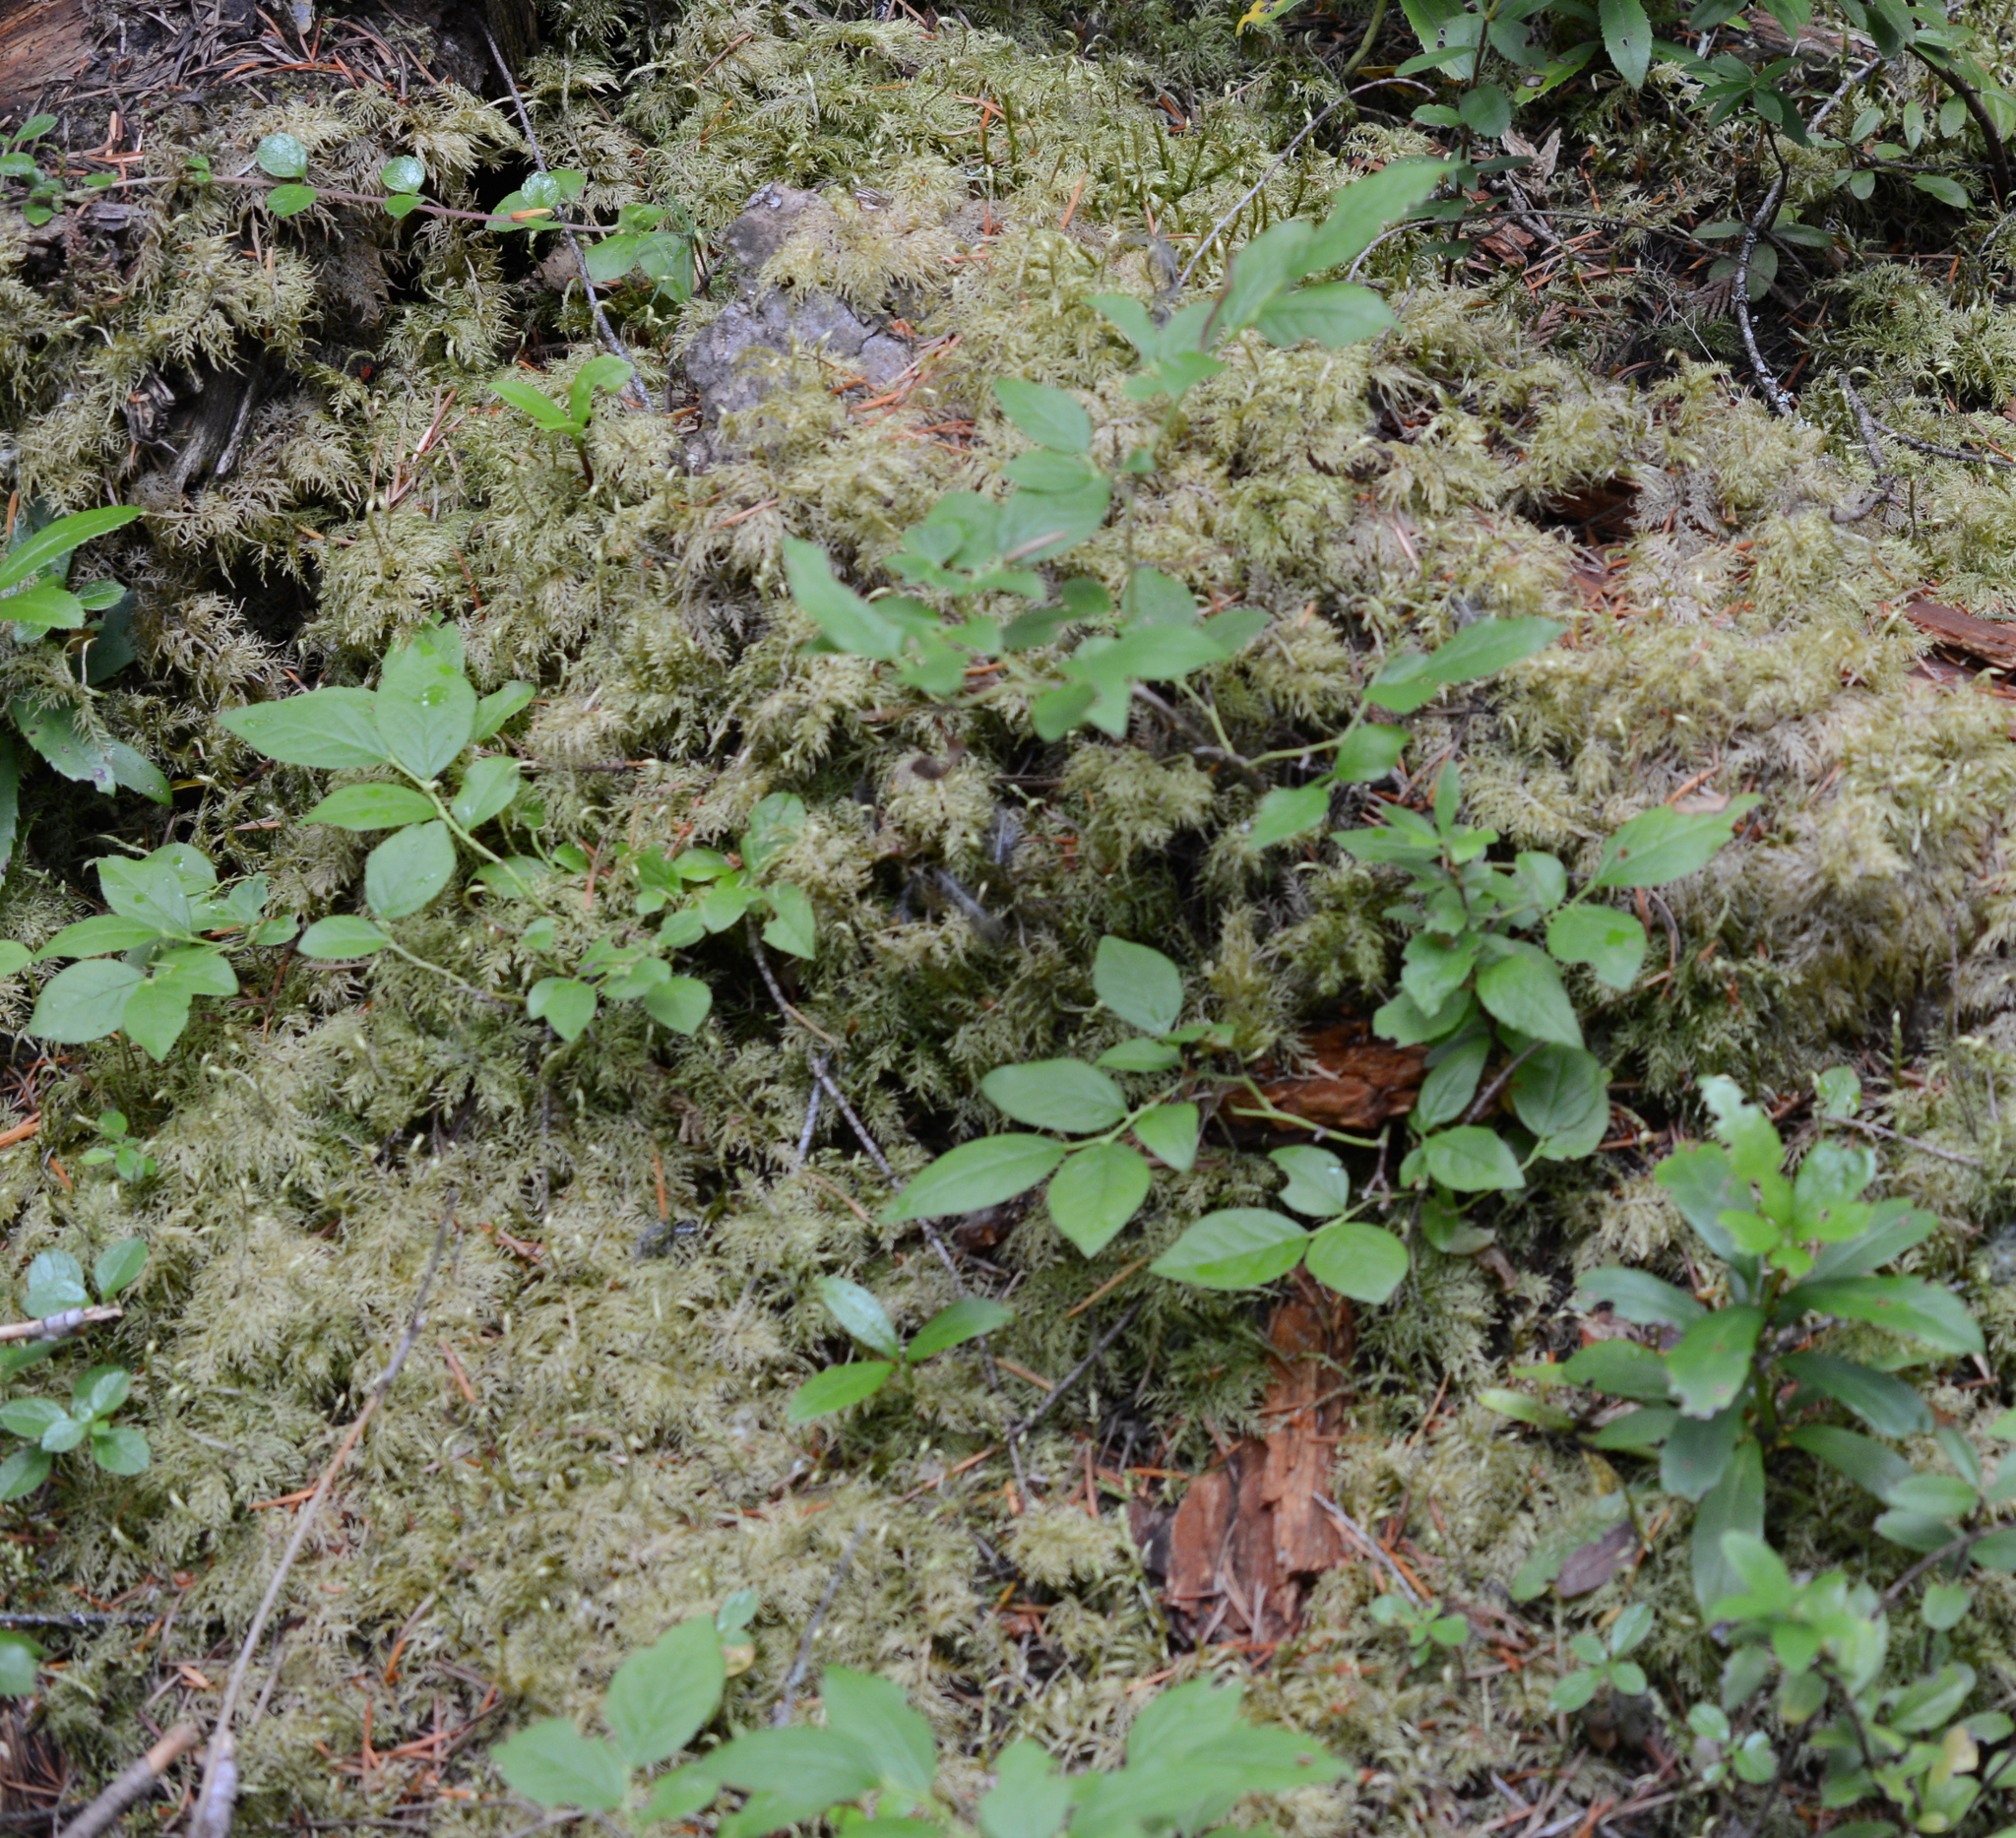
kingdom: Plantae
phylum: Bryophyta
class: Bryopsida
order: Hypnales
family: Hylocomiaceae
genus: Hylocomium
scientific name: Hylocomium splendens
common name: Stairstep moss
